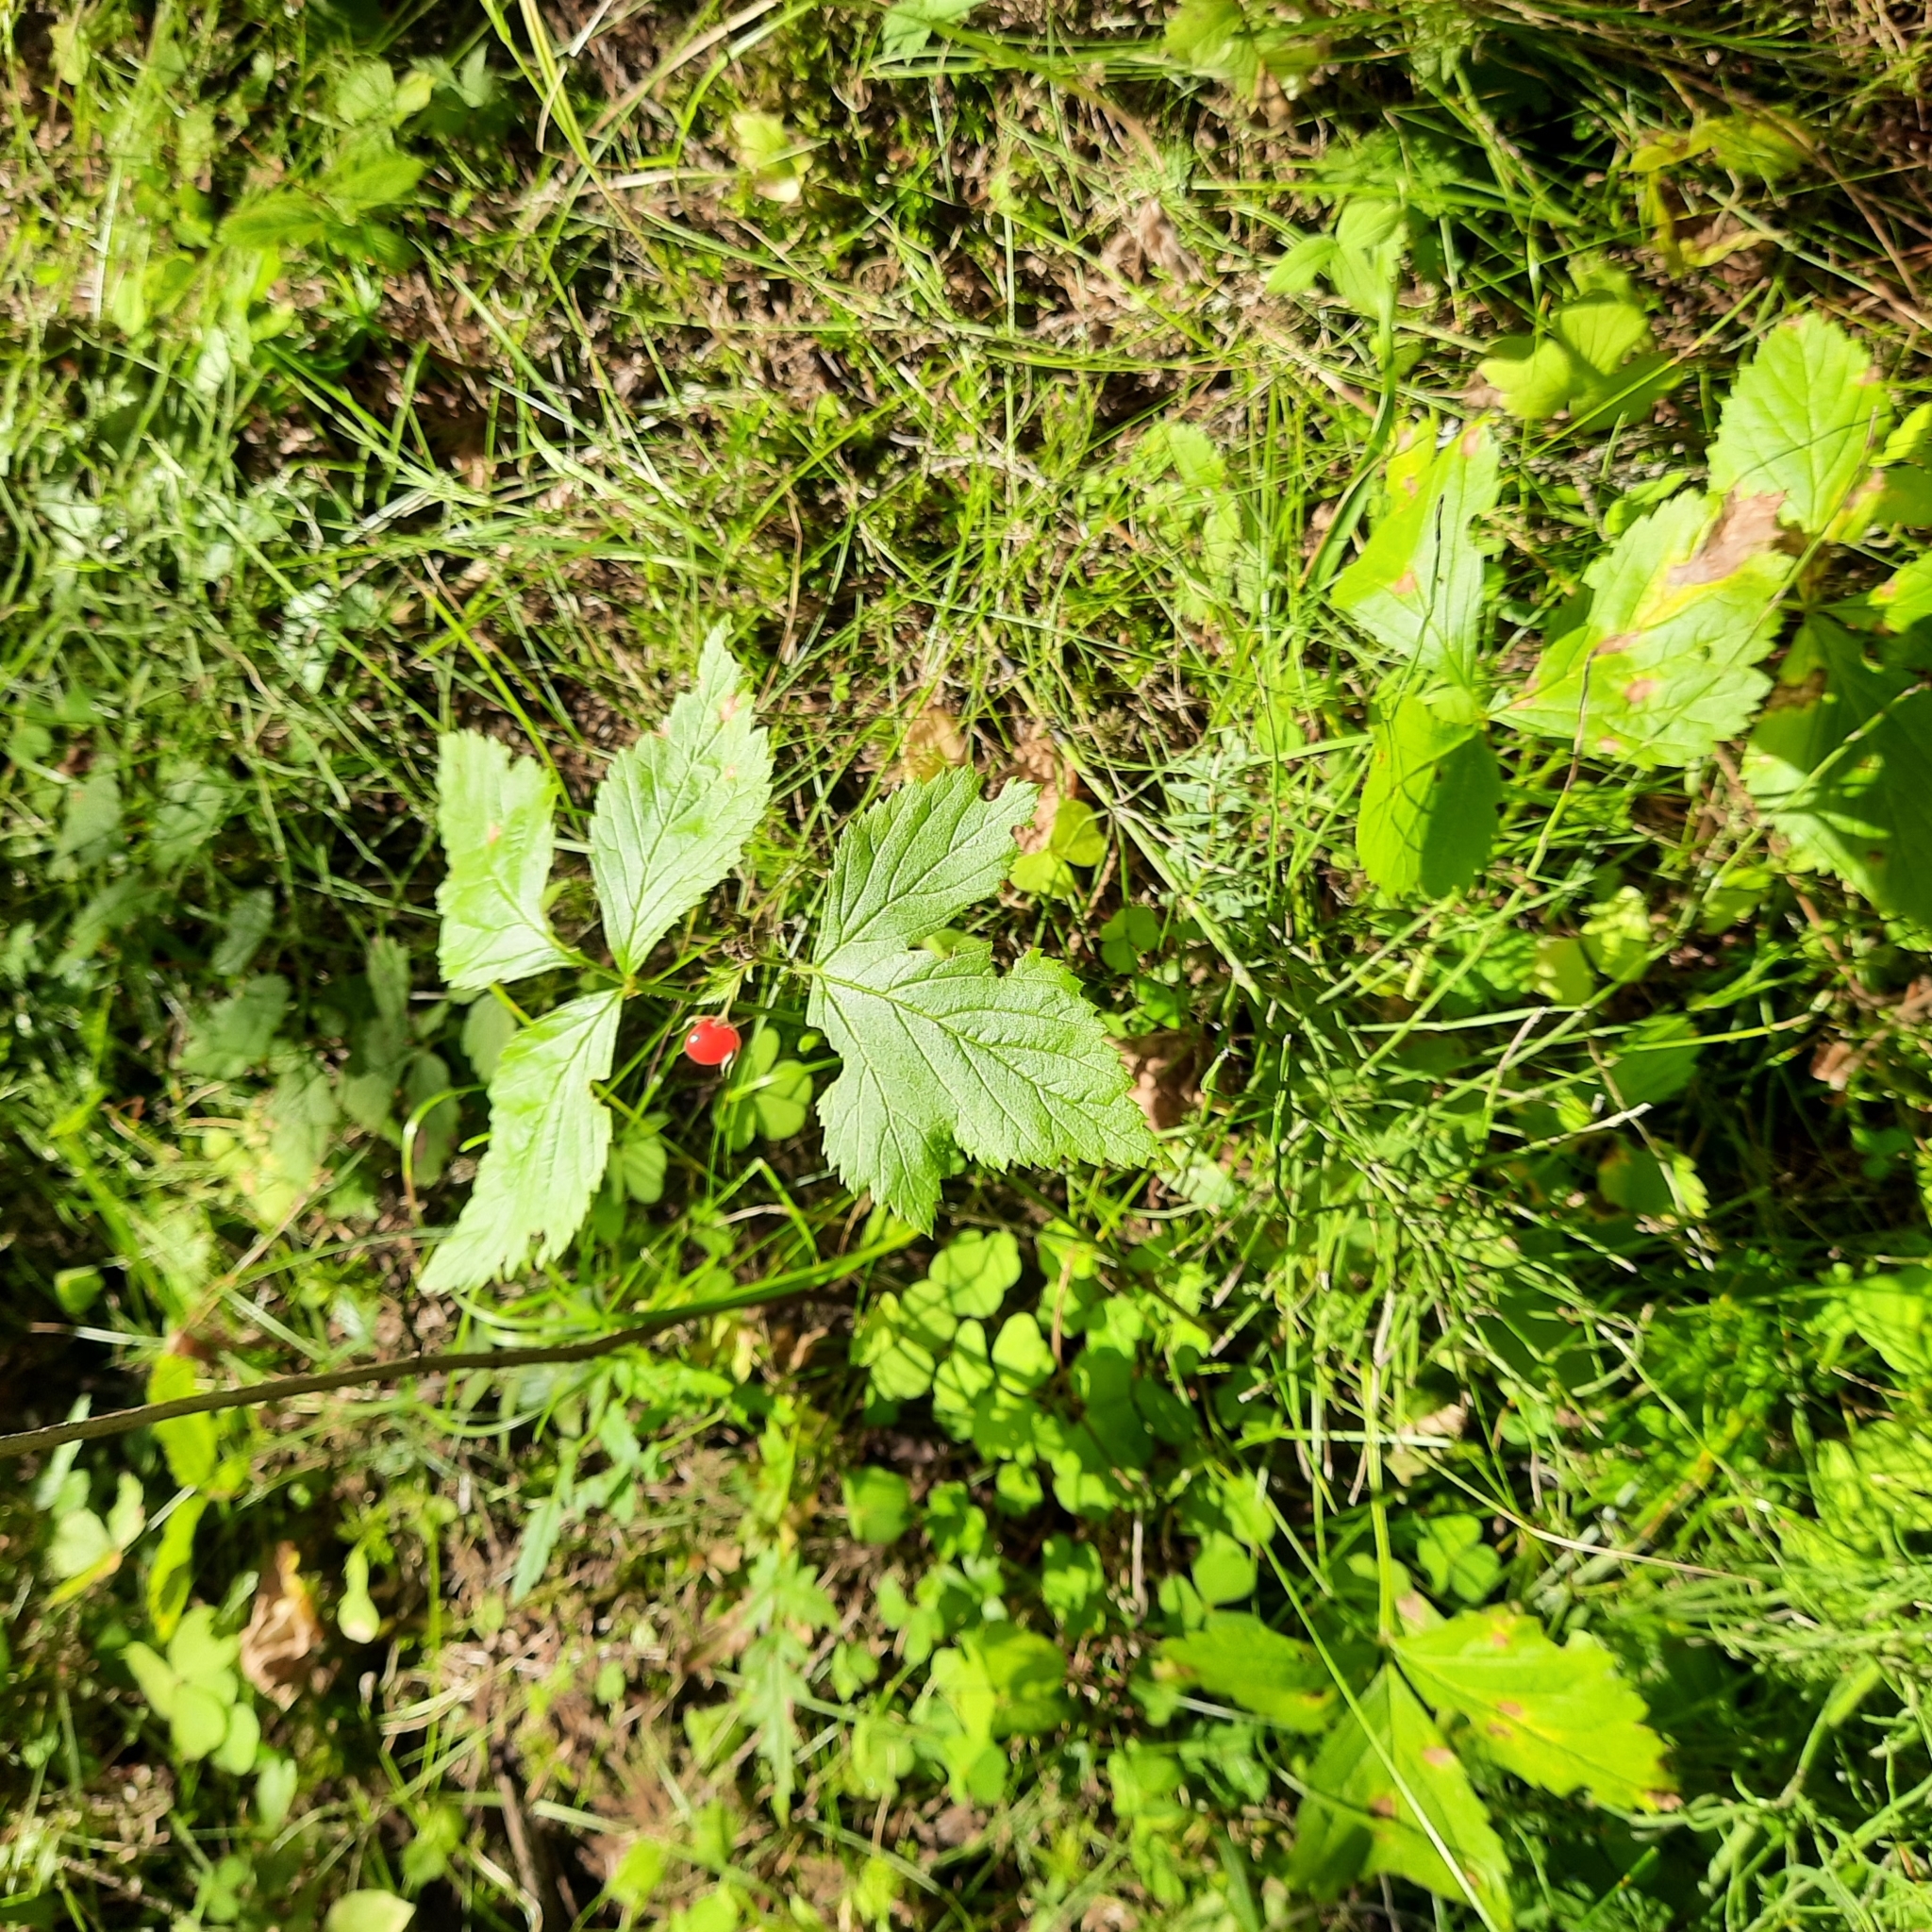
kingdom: Plantae
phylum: Tracheophyta
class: Magnoliopsida
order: Rosales
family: Rosaceae
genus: Rubus
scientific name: Rubus saxatilis
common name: Stone bramble
